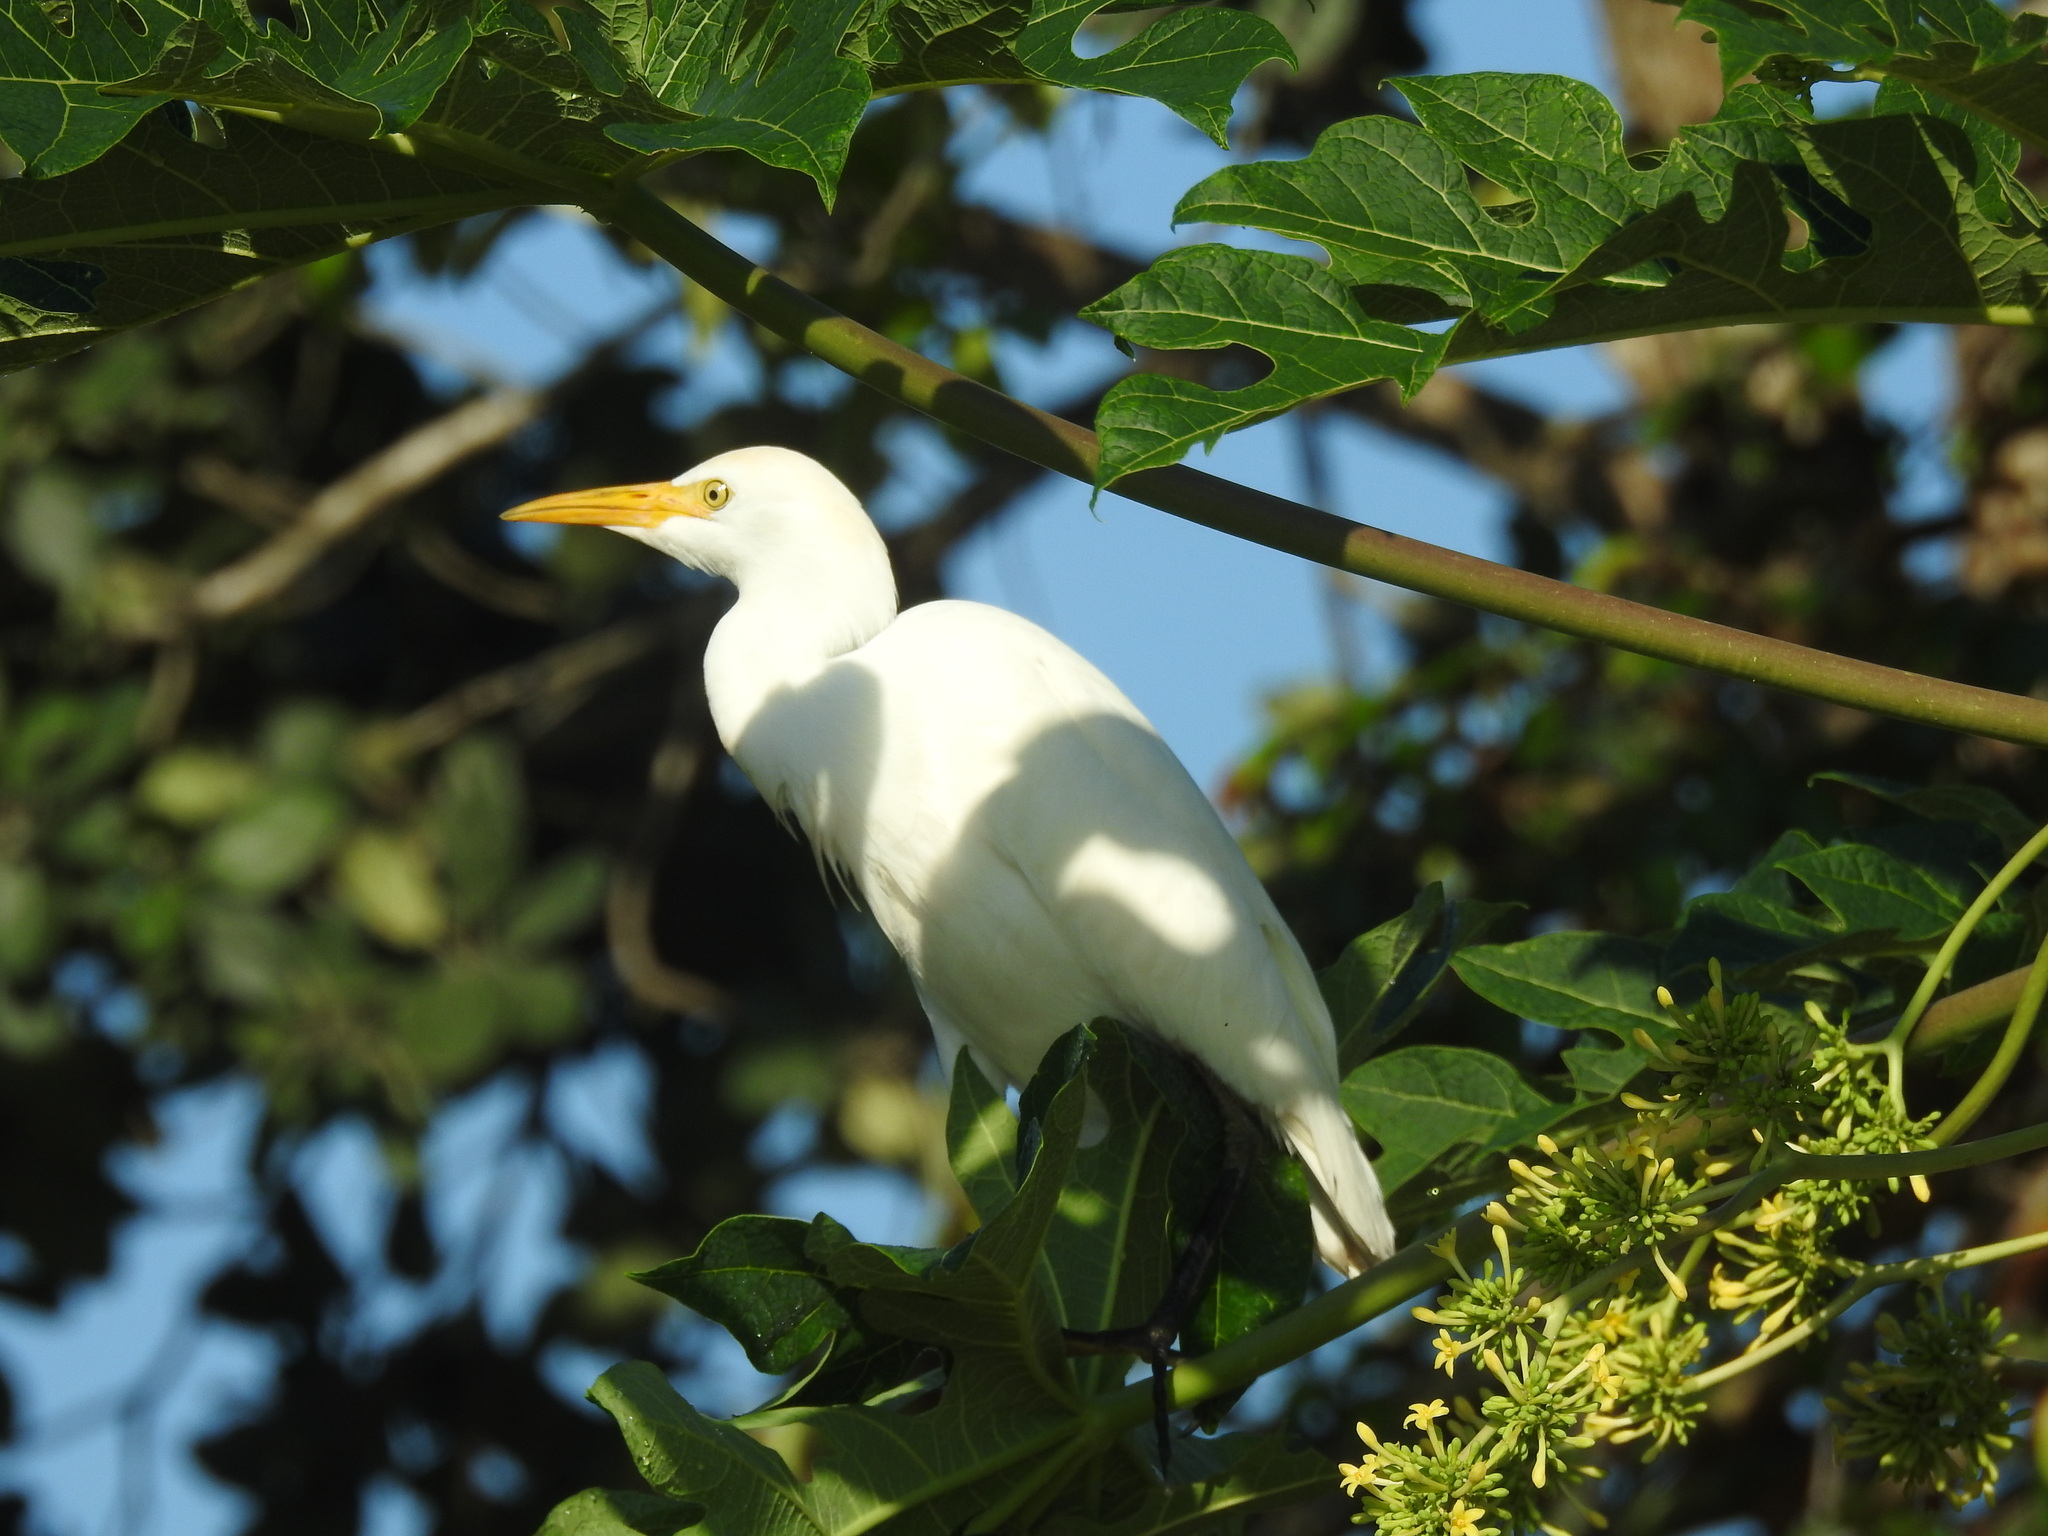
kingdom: Animalia
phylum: Chordata
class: Aves
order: Pelecaniformes
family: Ardeidae
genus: Bubulcus
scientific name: Bubulcus ibis
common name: Cattle egret
